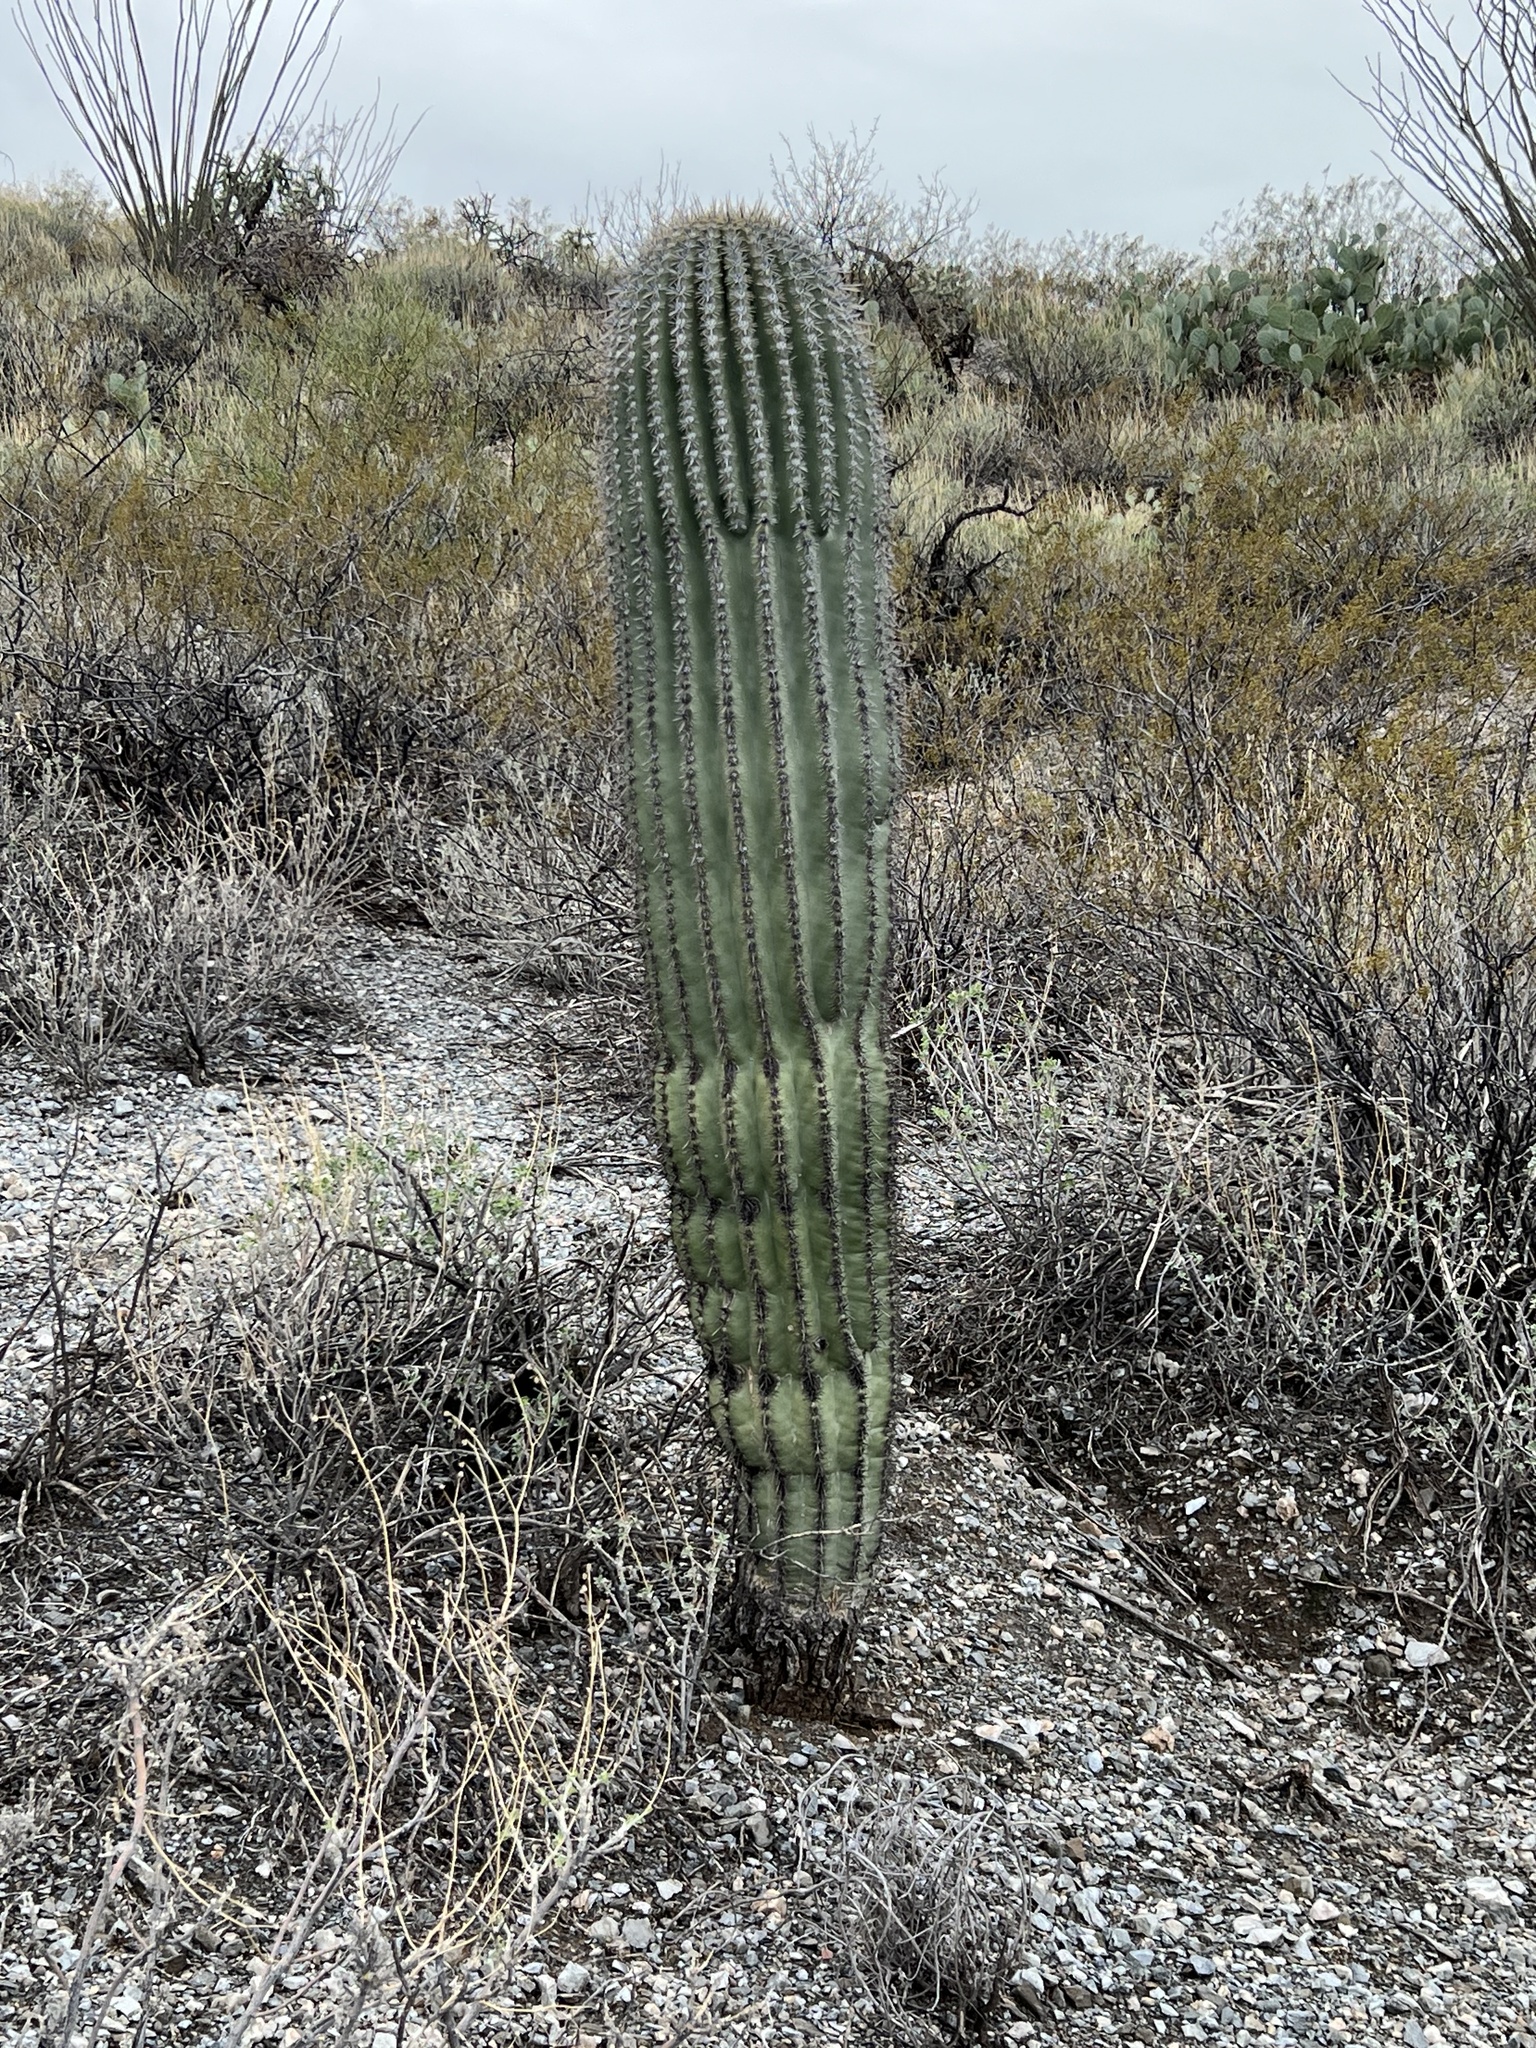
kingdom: Plantae
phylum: Tracheophyta
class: Magnoliopsida
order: Caryophyllales
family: Cactaceae
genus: Carnegiea
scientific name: Carnegiea gigantea
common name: Saguaro
